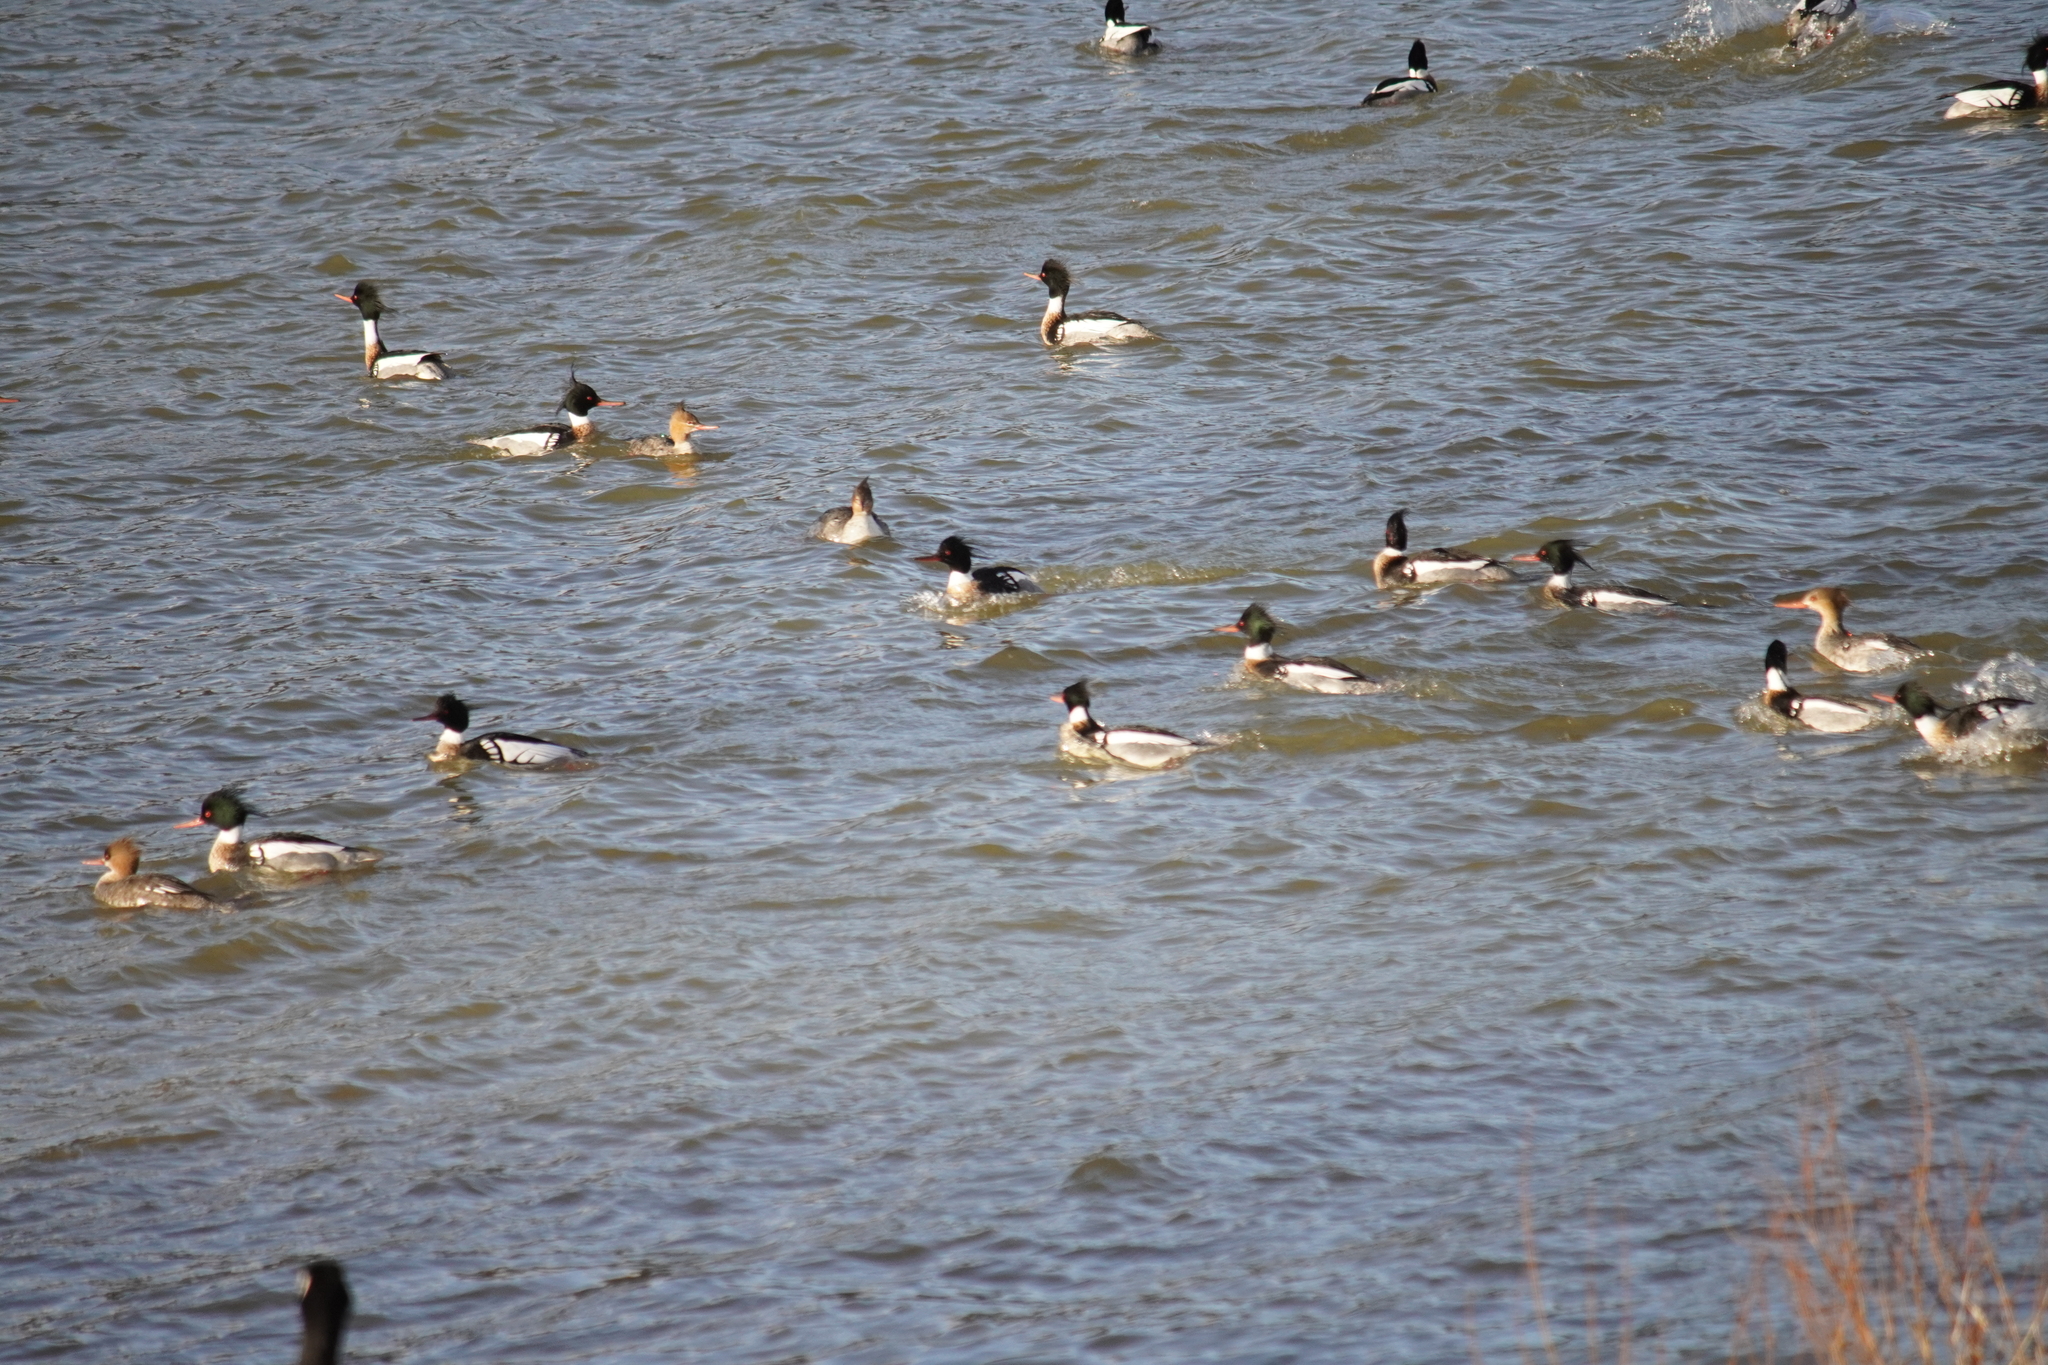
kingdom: Animalia
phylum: Chordata
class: Aves
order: Anseriformes
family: Anatidae
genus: Mergus
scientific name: Mergus serrator
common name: Red-breasted merganser
